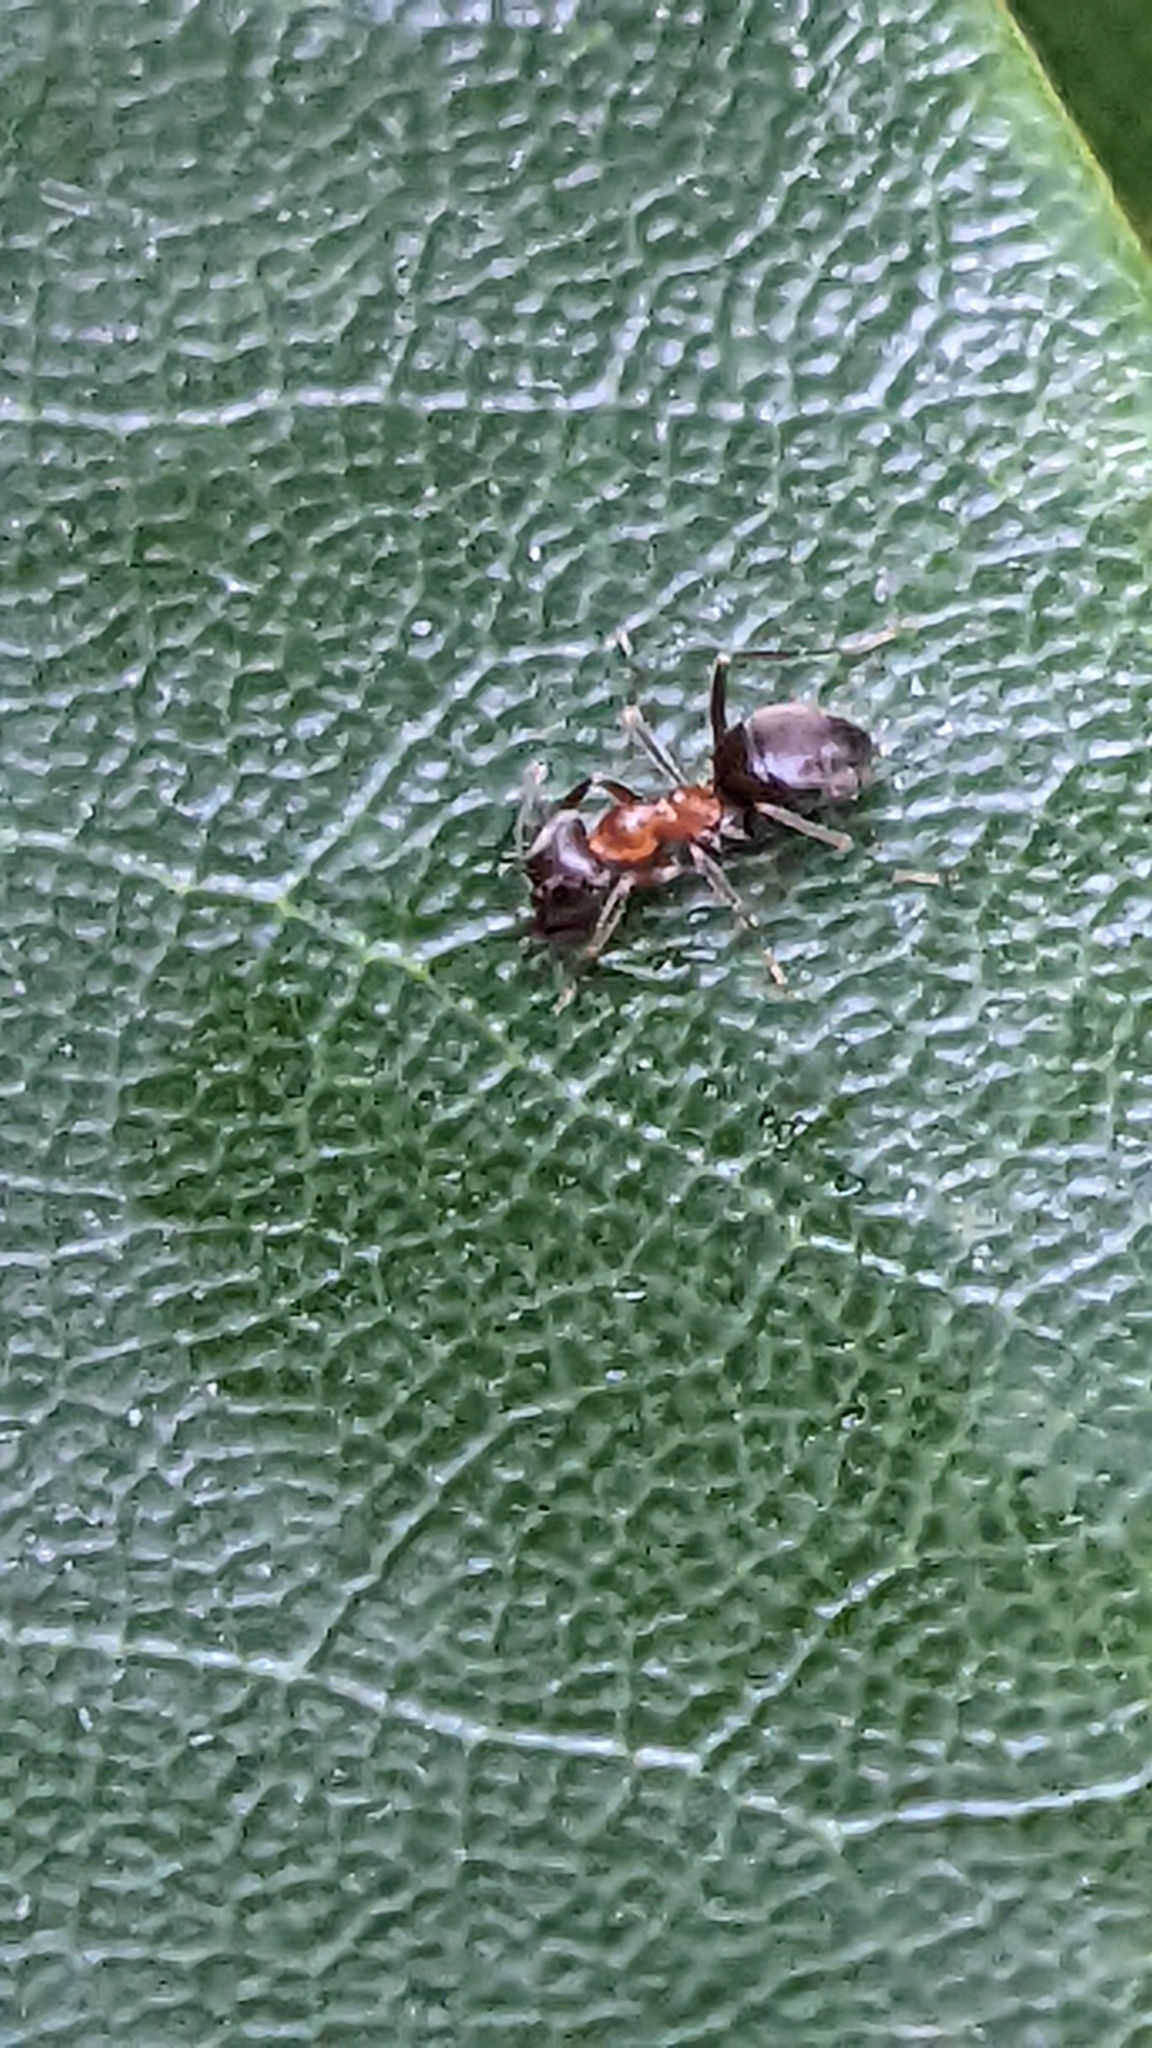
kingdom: Animalia
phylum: Arthropoda
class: Insecta
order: Hymenoptera
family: Formicidae
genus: Lasius
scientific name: Lasius emarginatus
